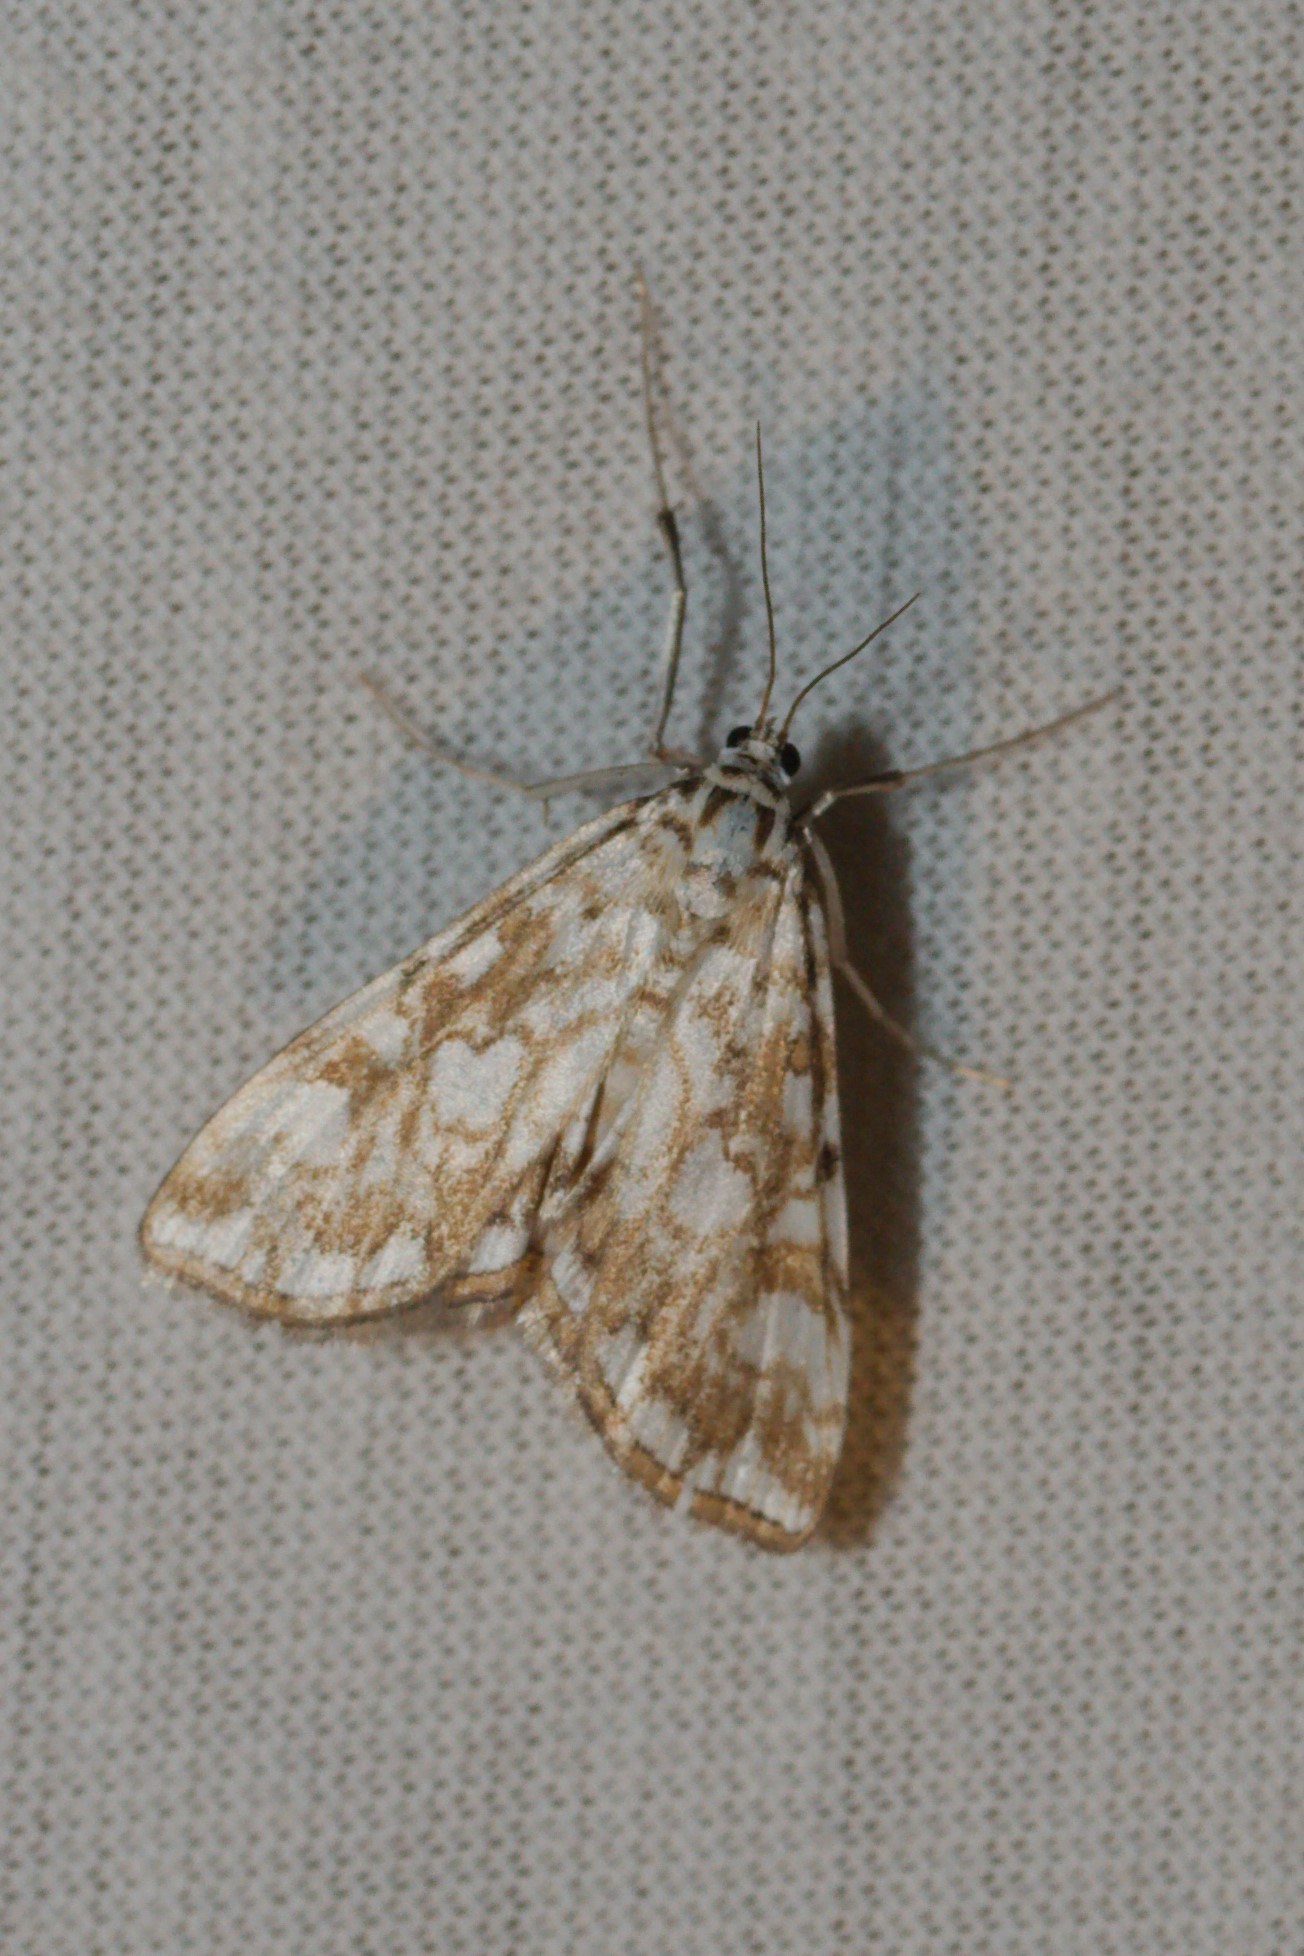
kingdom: Animalia
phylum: Arthropoda
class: Insecta
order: Lepidoptera
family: Crambidae
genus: Elophila
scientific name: Elophila nymphaeata
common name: Brown china-mark
